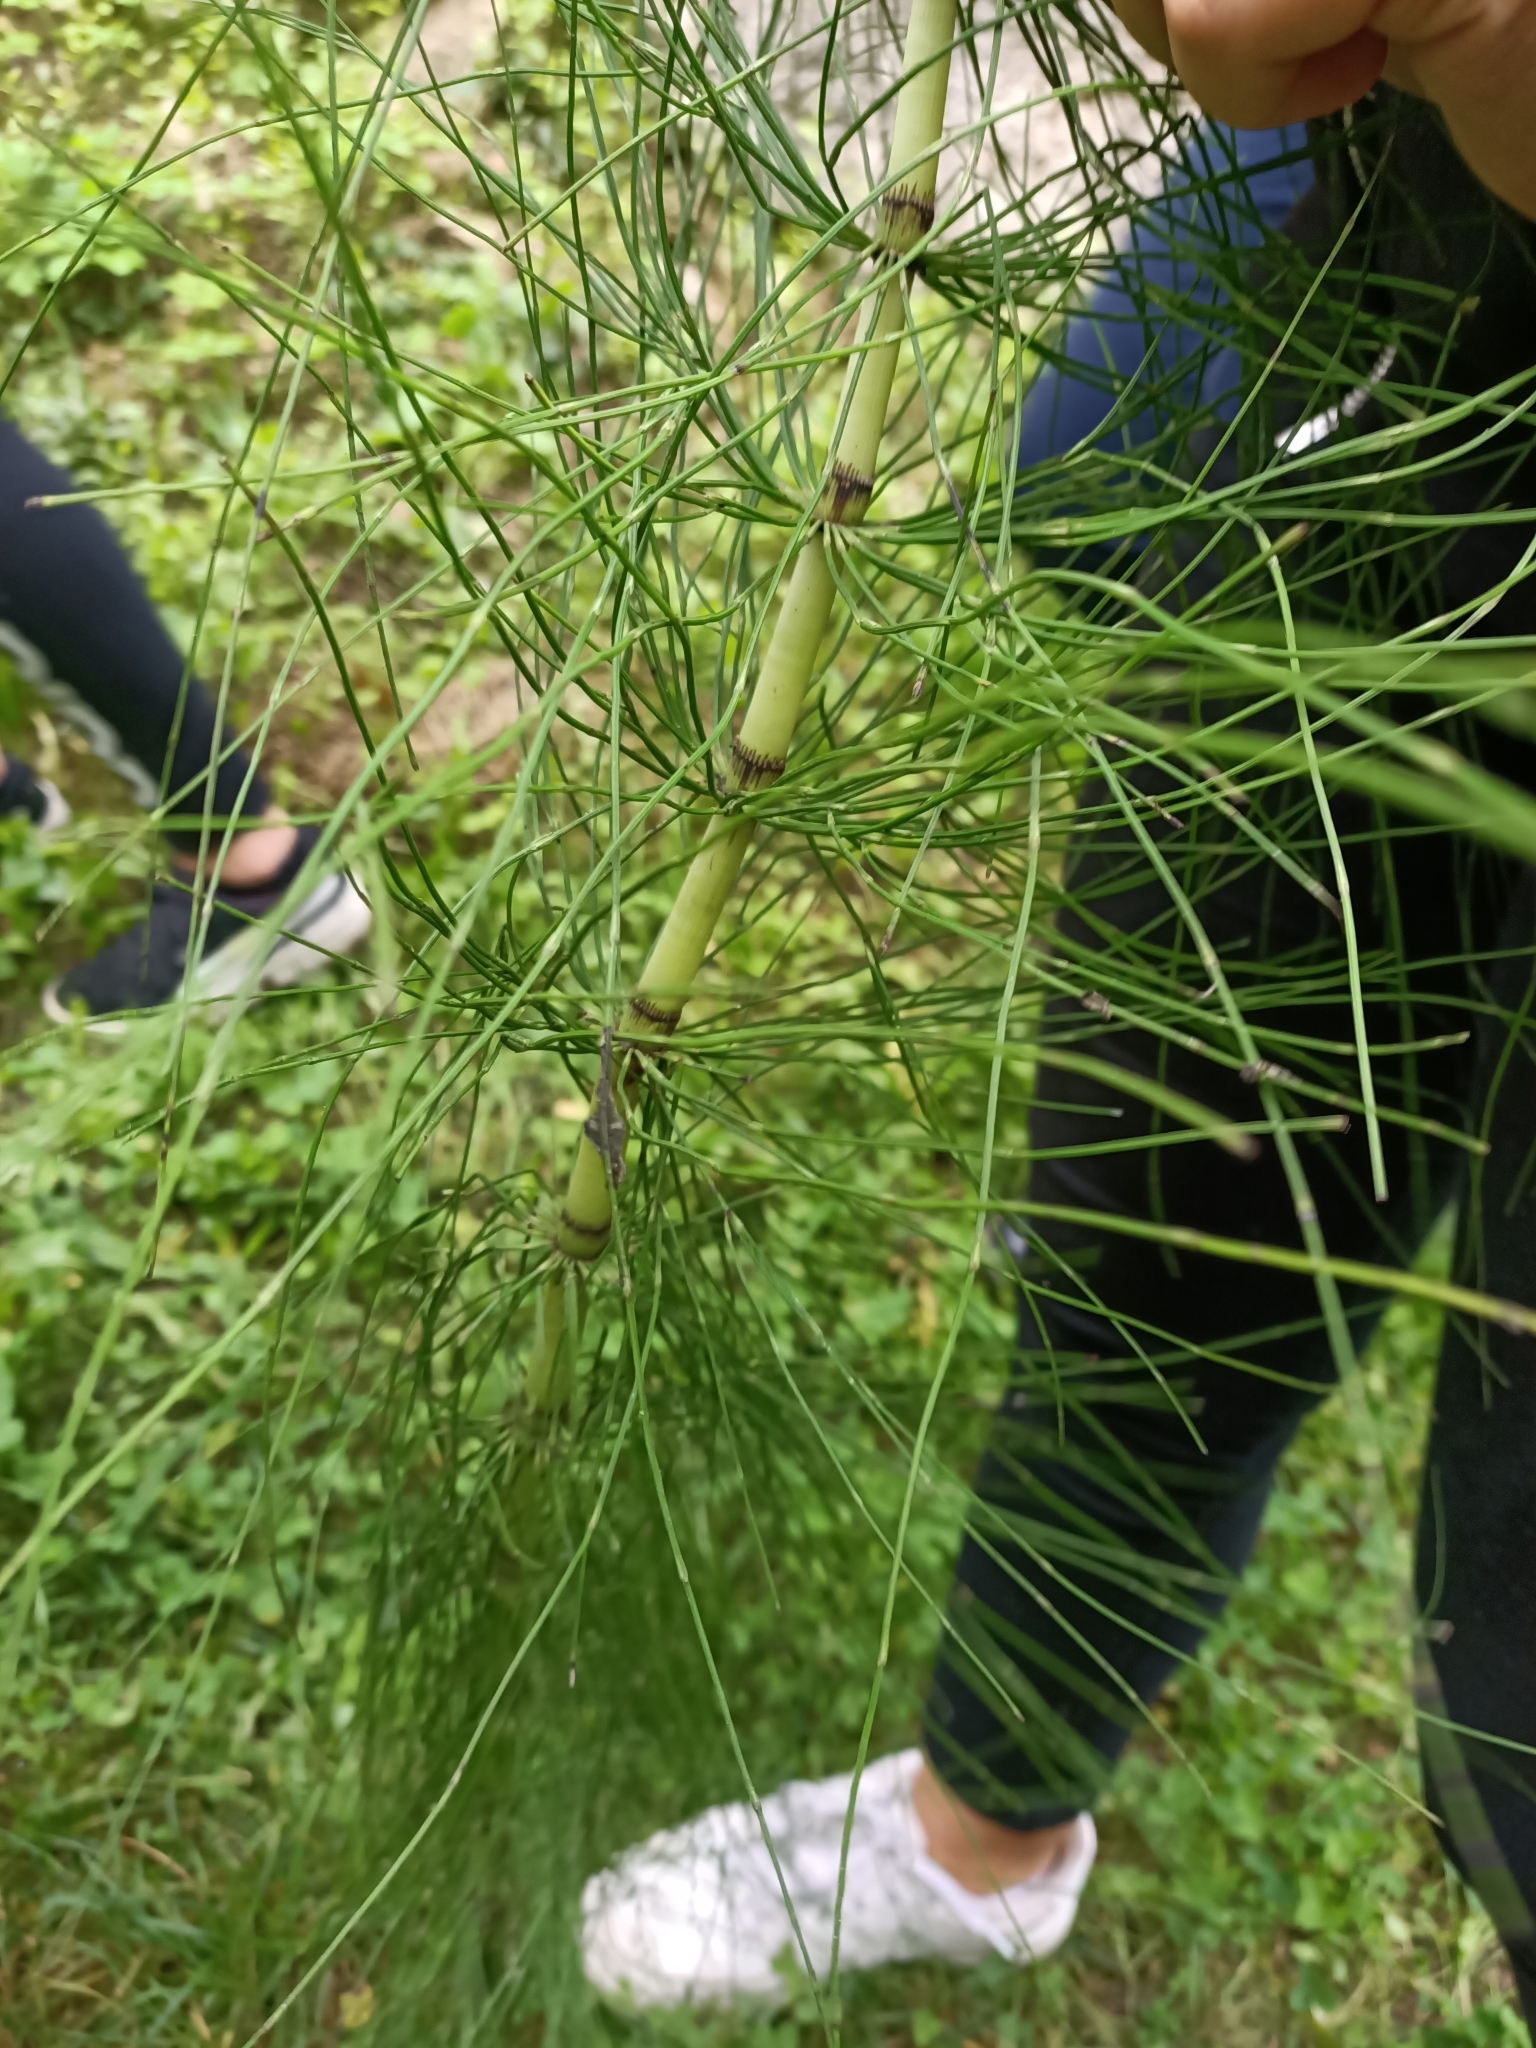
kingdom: Plantae
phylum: Tracheophyta
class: Polypodiopsida
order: Equisetales
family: Equisetaceae
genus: Equisetum
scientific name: Equisetum telmateia
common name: Great horsetail
